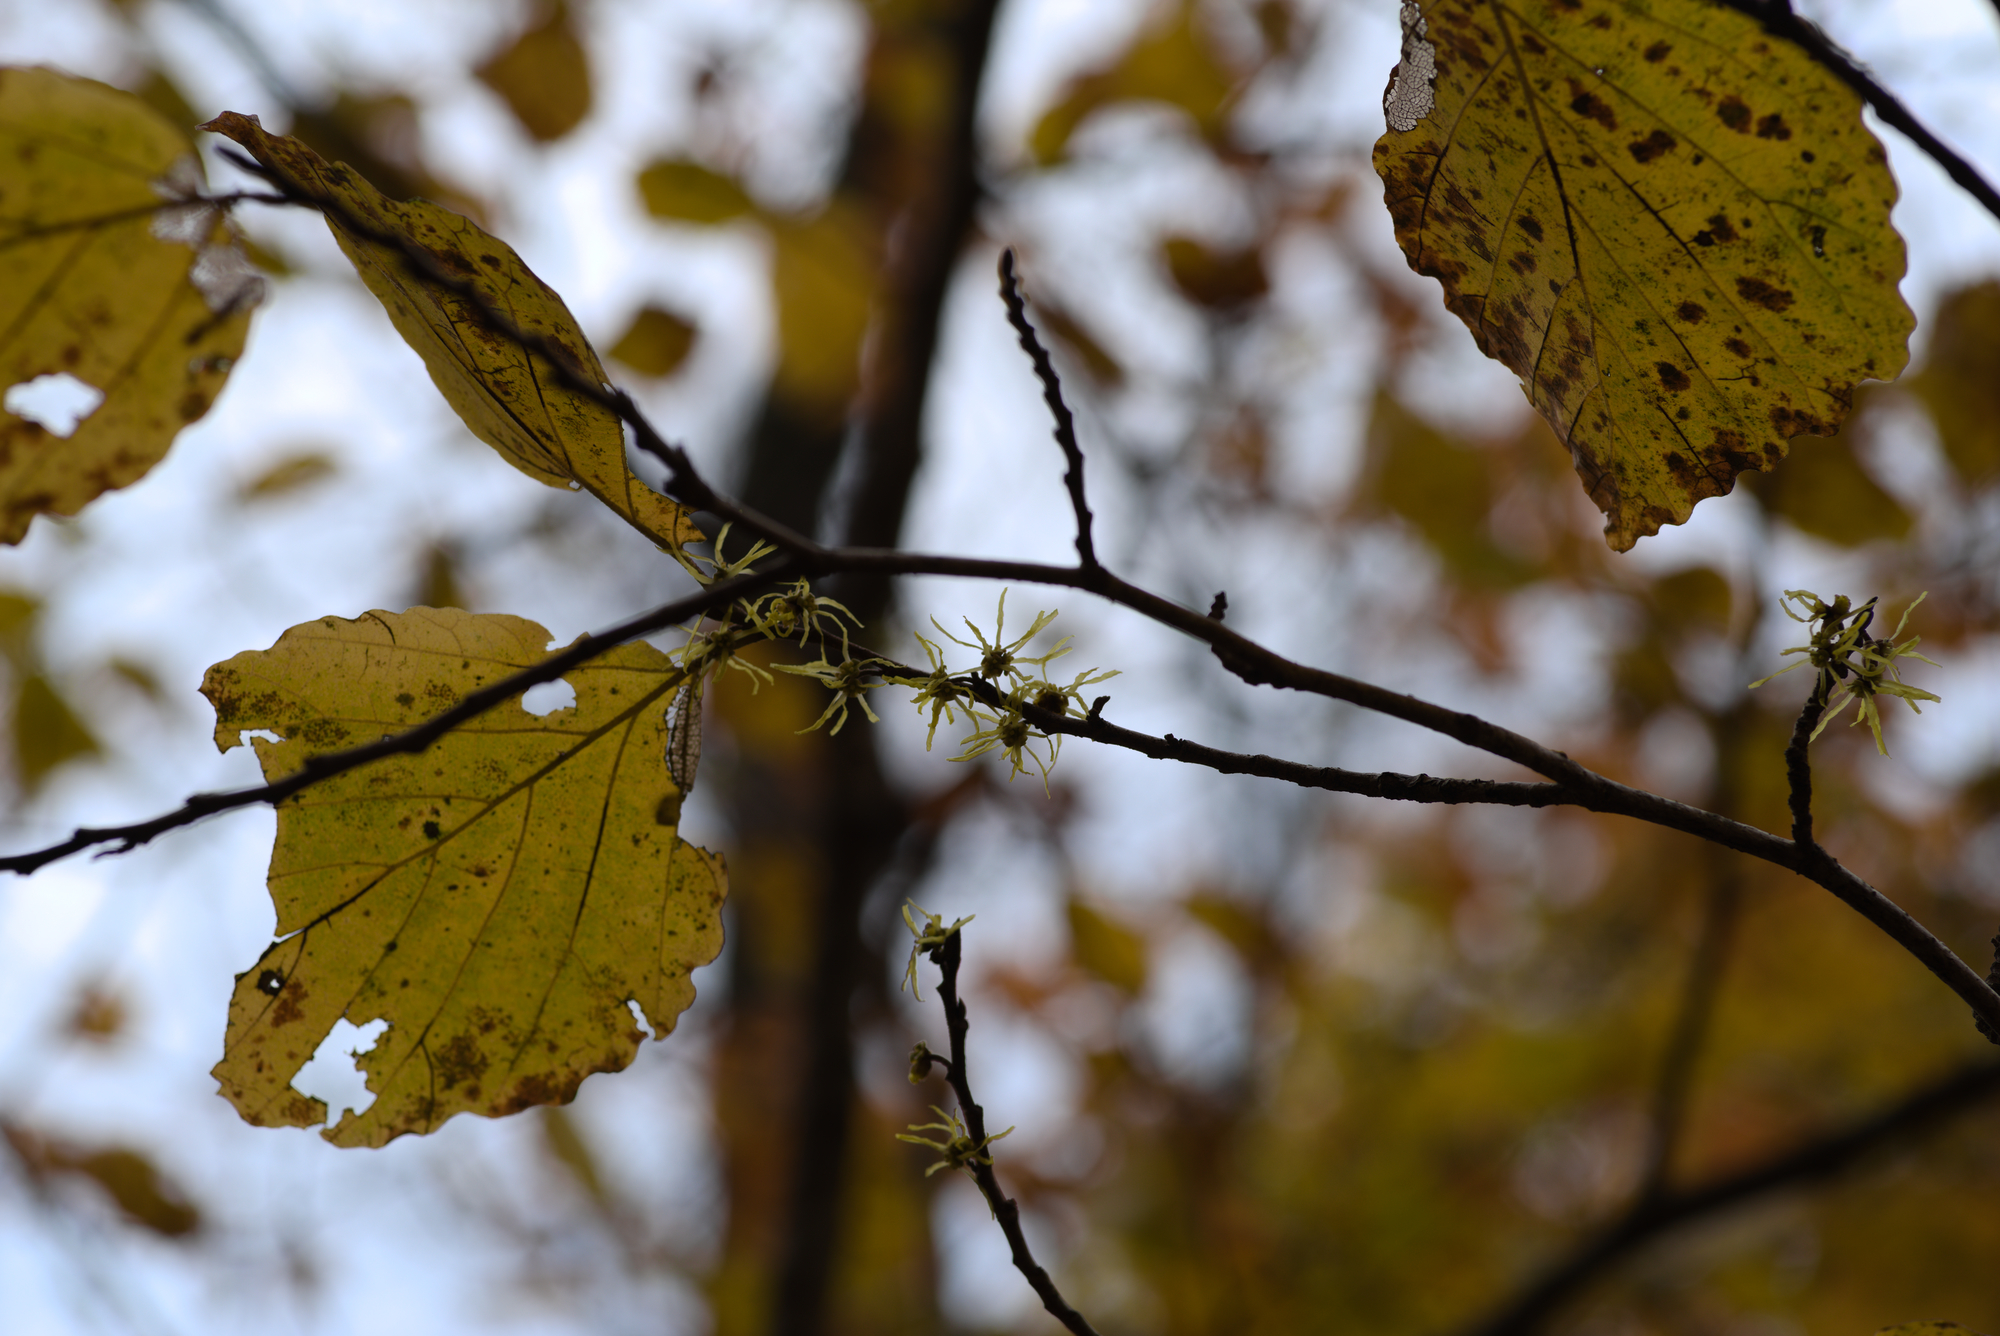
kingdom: Plantae
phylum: Tracheophyta
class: Magnoliopsida
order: Saxifragales
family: Hamamelidaceae
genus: Hamamelis
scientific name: Hamamelis virginiana
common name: Witch-hazel
